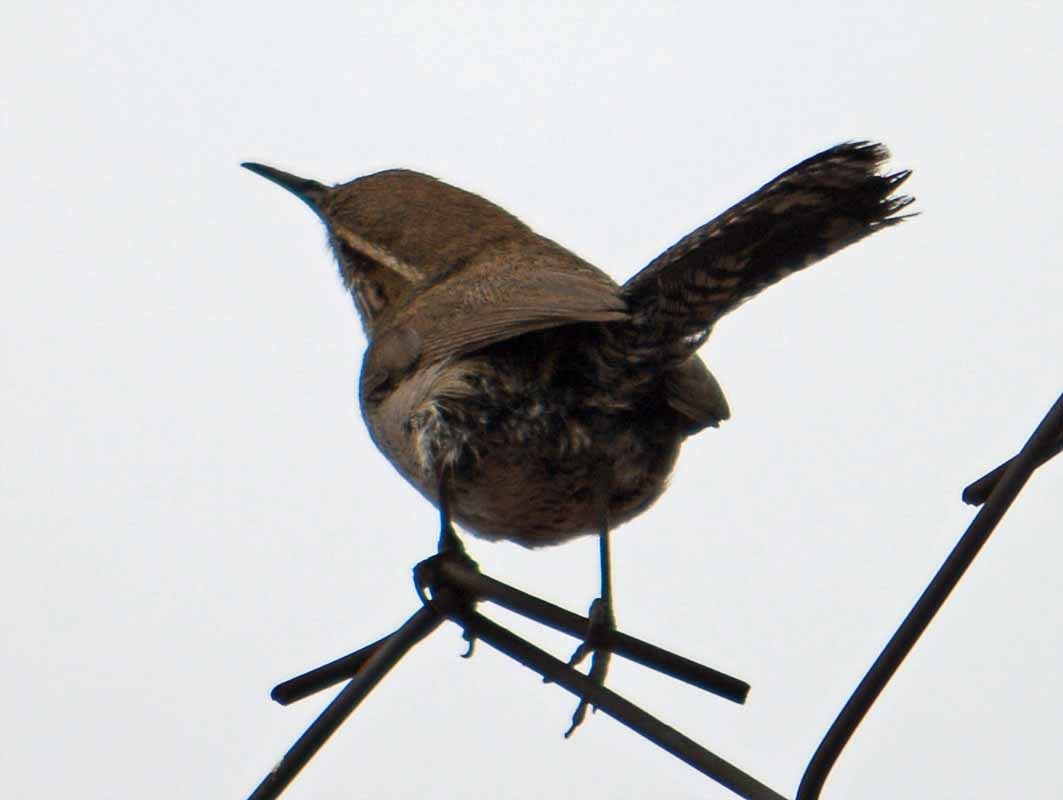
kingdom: Animalia
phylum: Chordata
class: Aves
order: Passeriformes
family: Troglodytidae
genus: Thryomanes
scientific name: Thryomanes bewickii
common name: Bewick's wren
